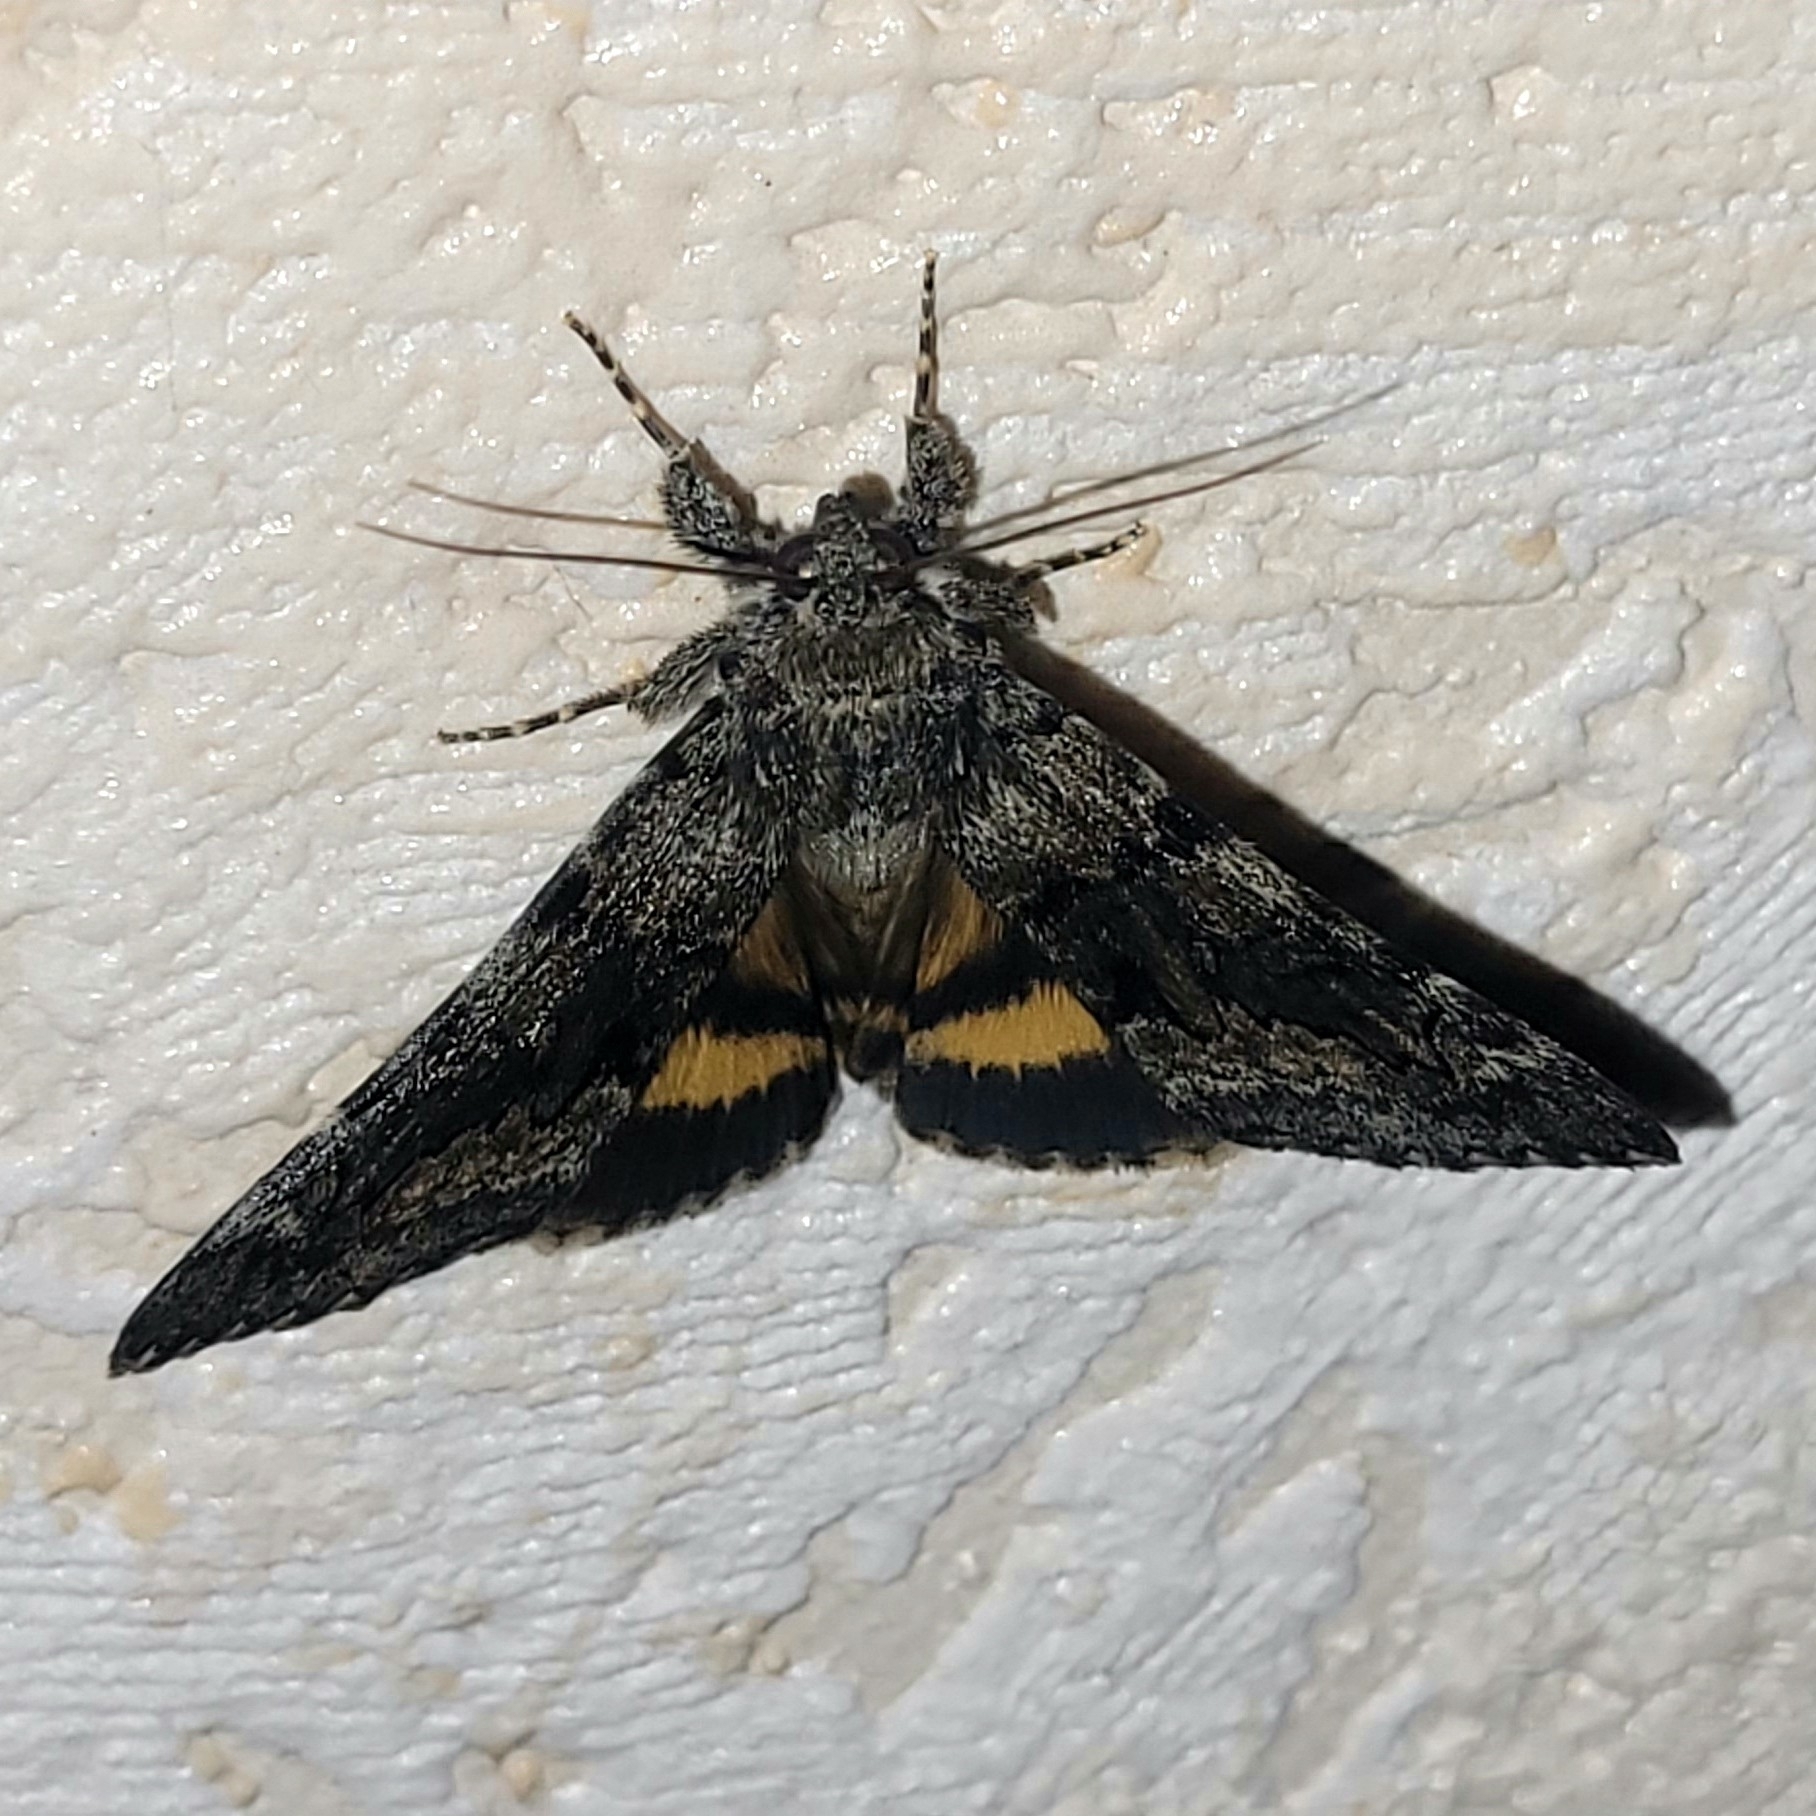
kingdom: Animalia
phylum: Arthropoda
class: Insecta
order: Lepidoptera
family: Erebidae
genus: Catocala
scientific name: Catocala nymphagoga
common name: Oak yellow underwing
